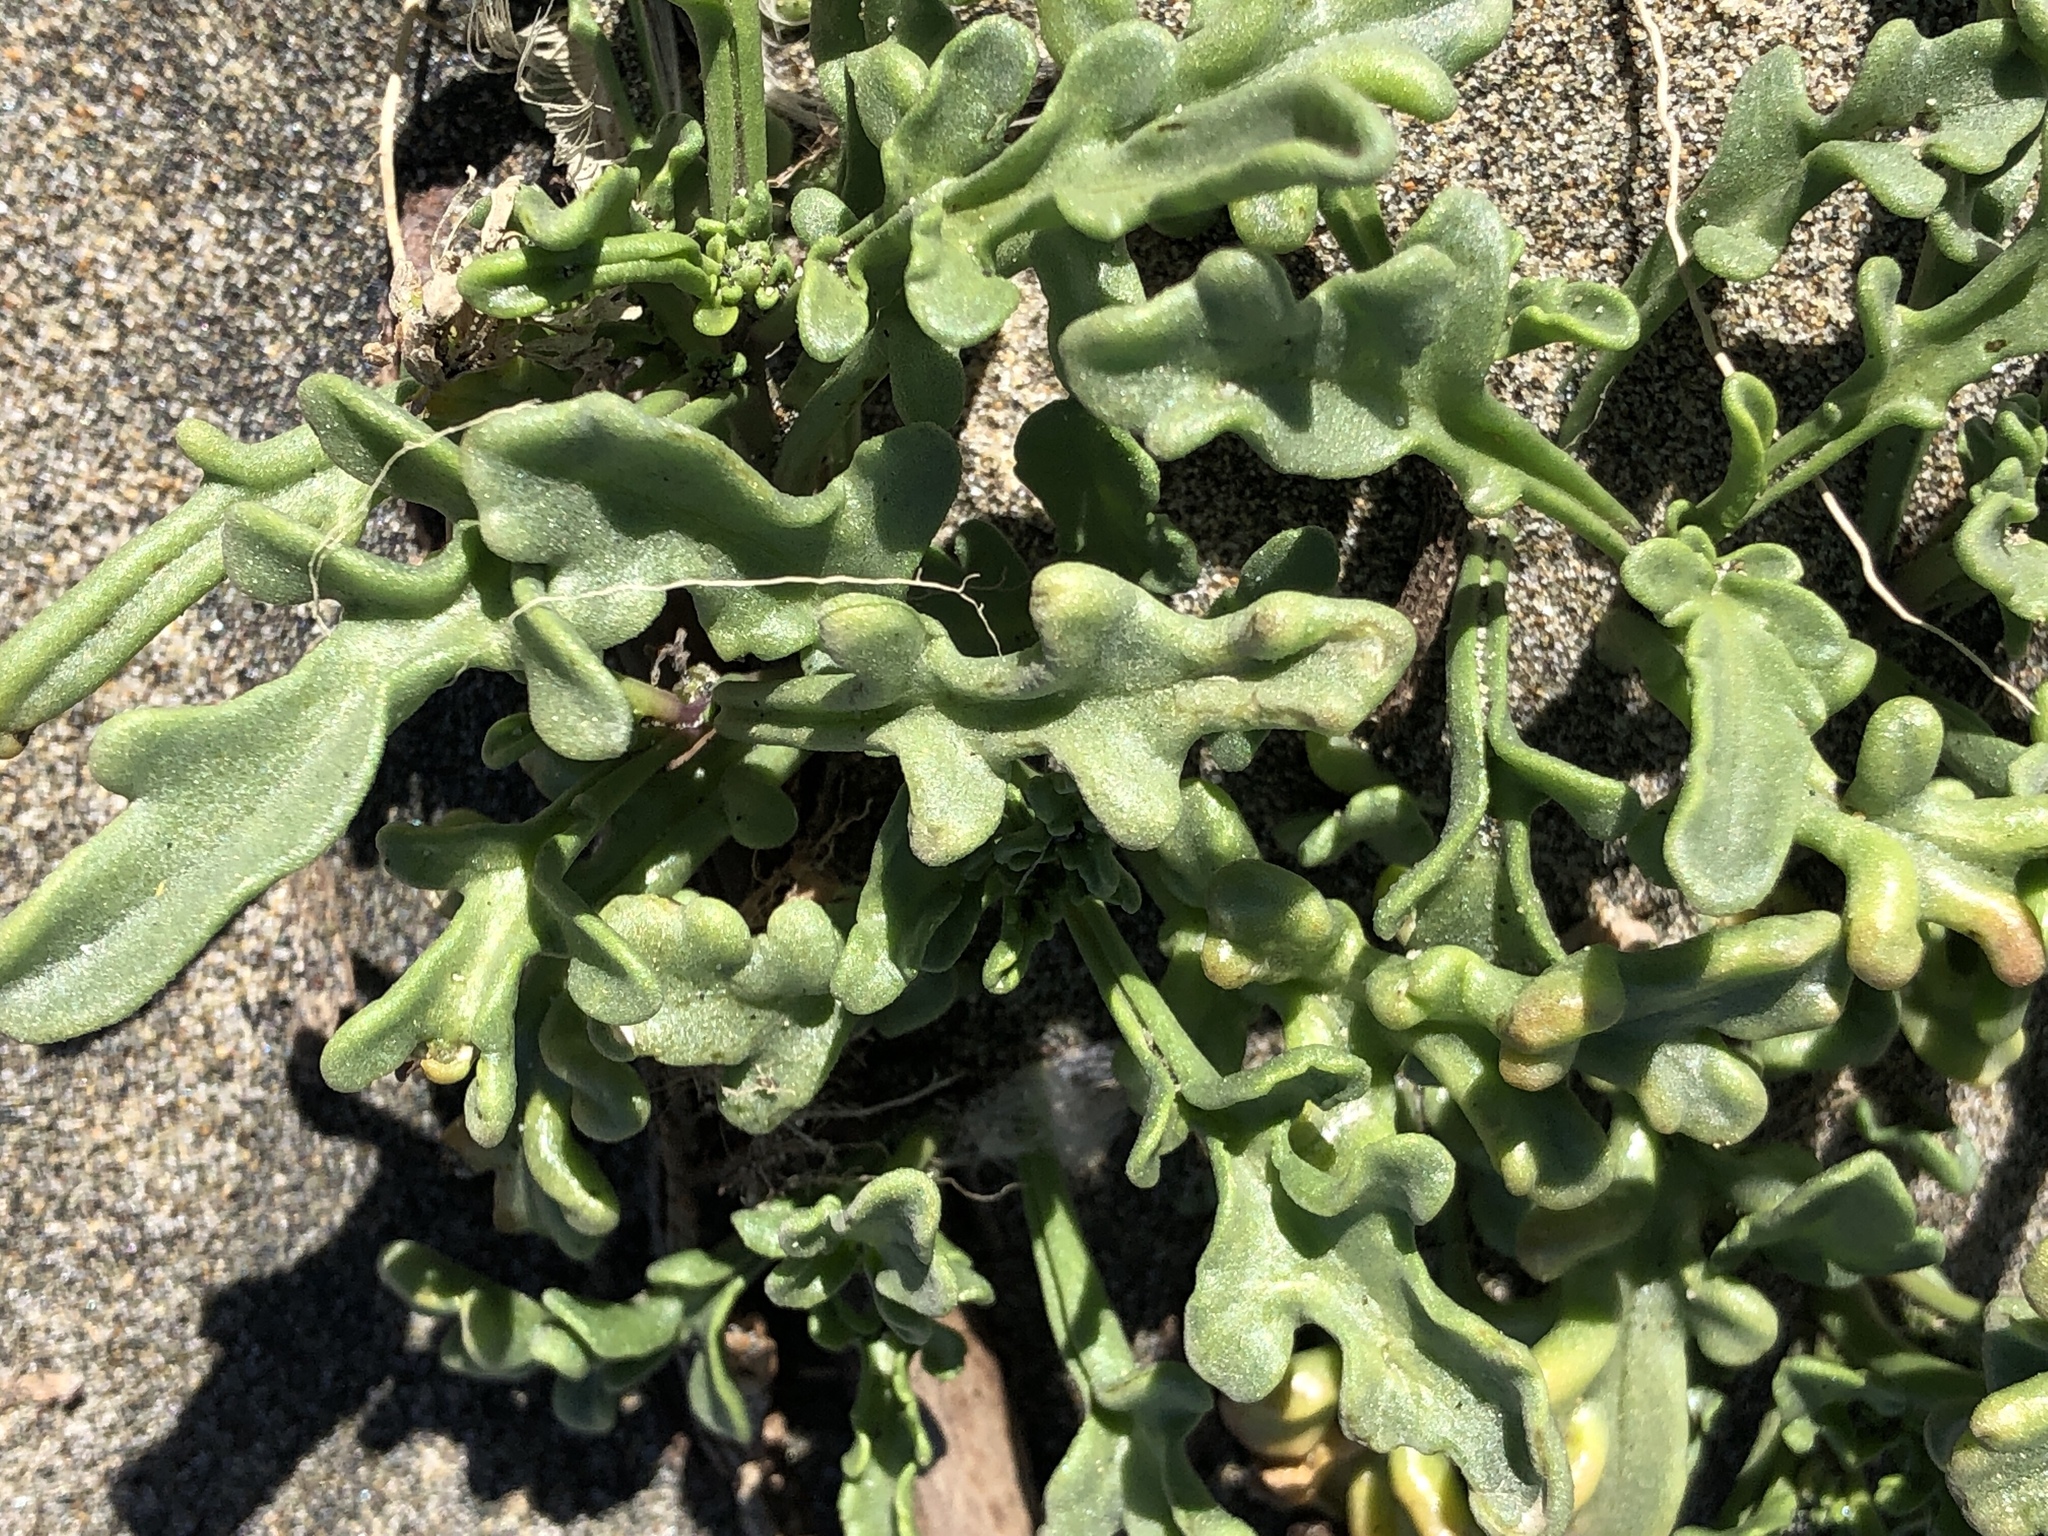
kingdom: Plantae
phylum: Tracheophyta
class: Magnoliopsida
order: Caryophyllales
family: Aizoaceae
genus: Tetragonia
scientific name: Tetragonia tetragonoides
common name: New zealand-spinach
